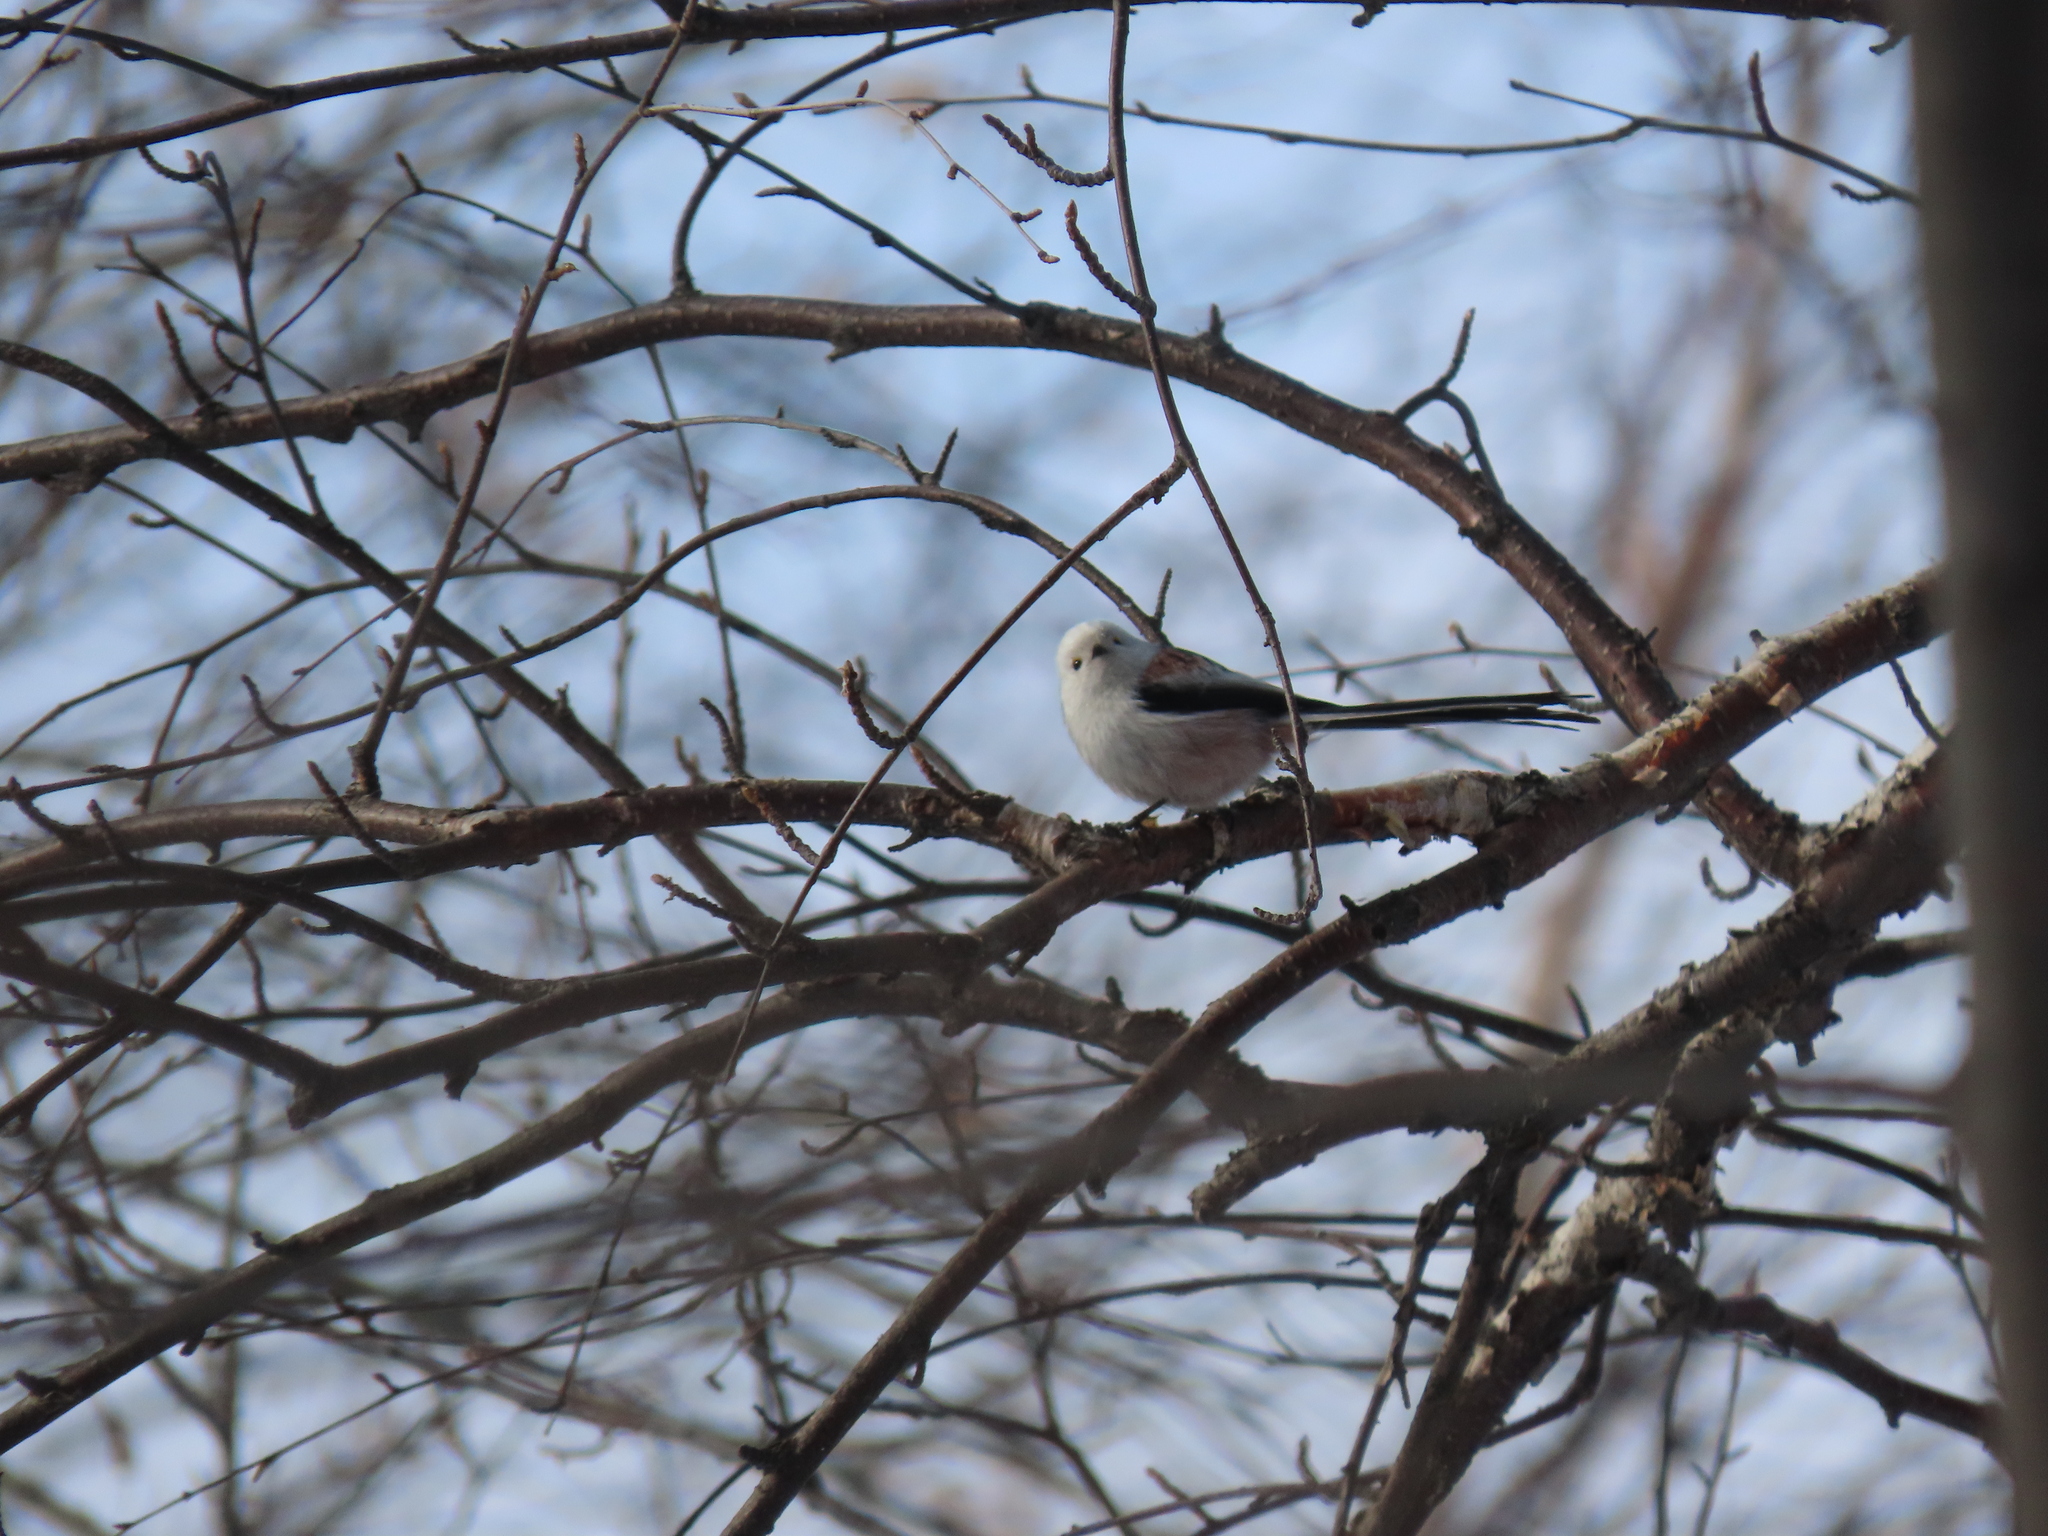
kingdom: Animalia
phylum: Chordata
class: Aves
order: Passeriformes
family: Aegithalidae
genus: Aegithalos
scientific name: Aegithalos caudatus
